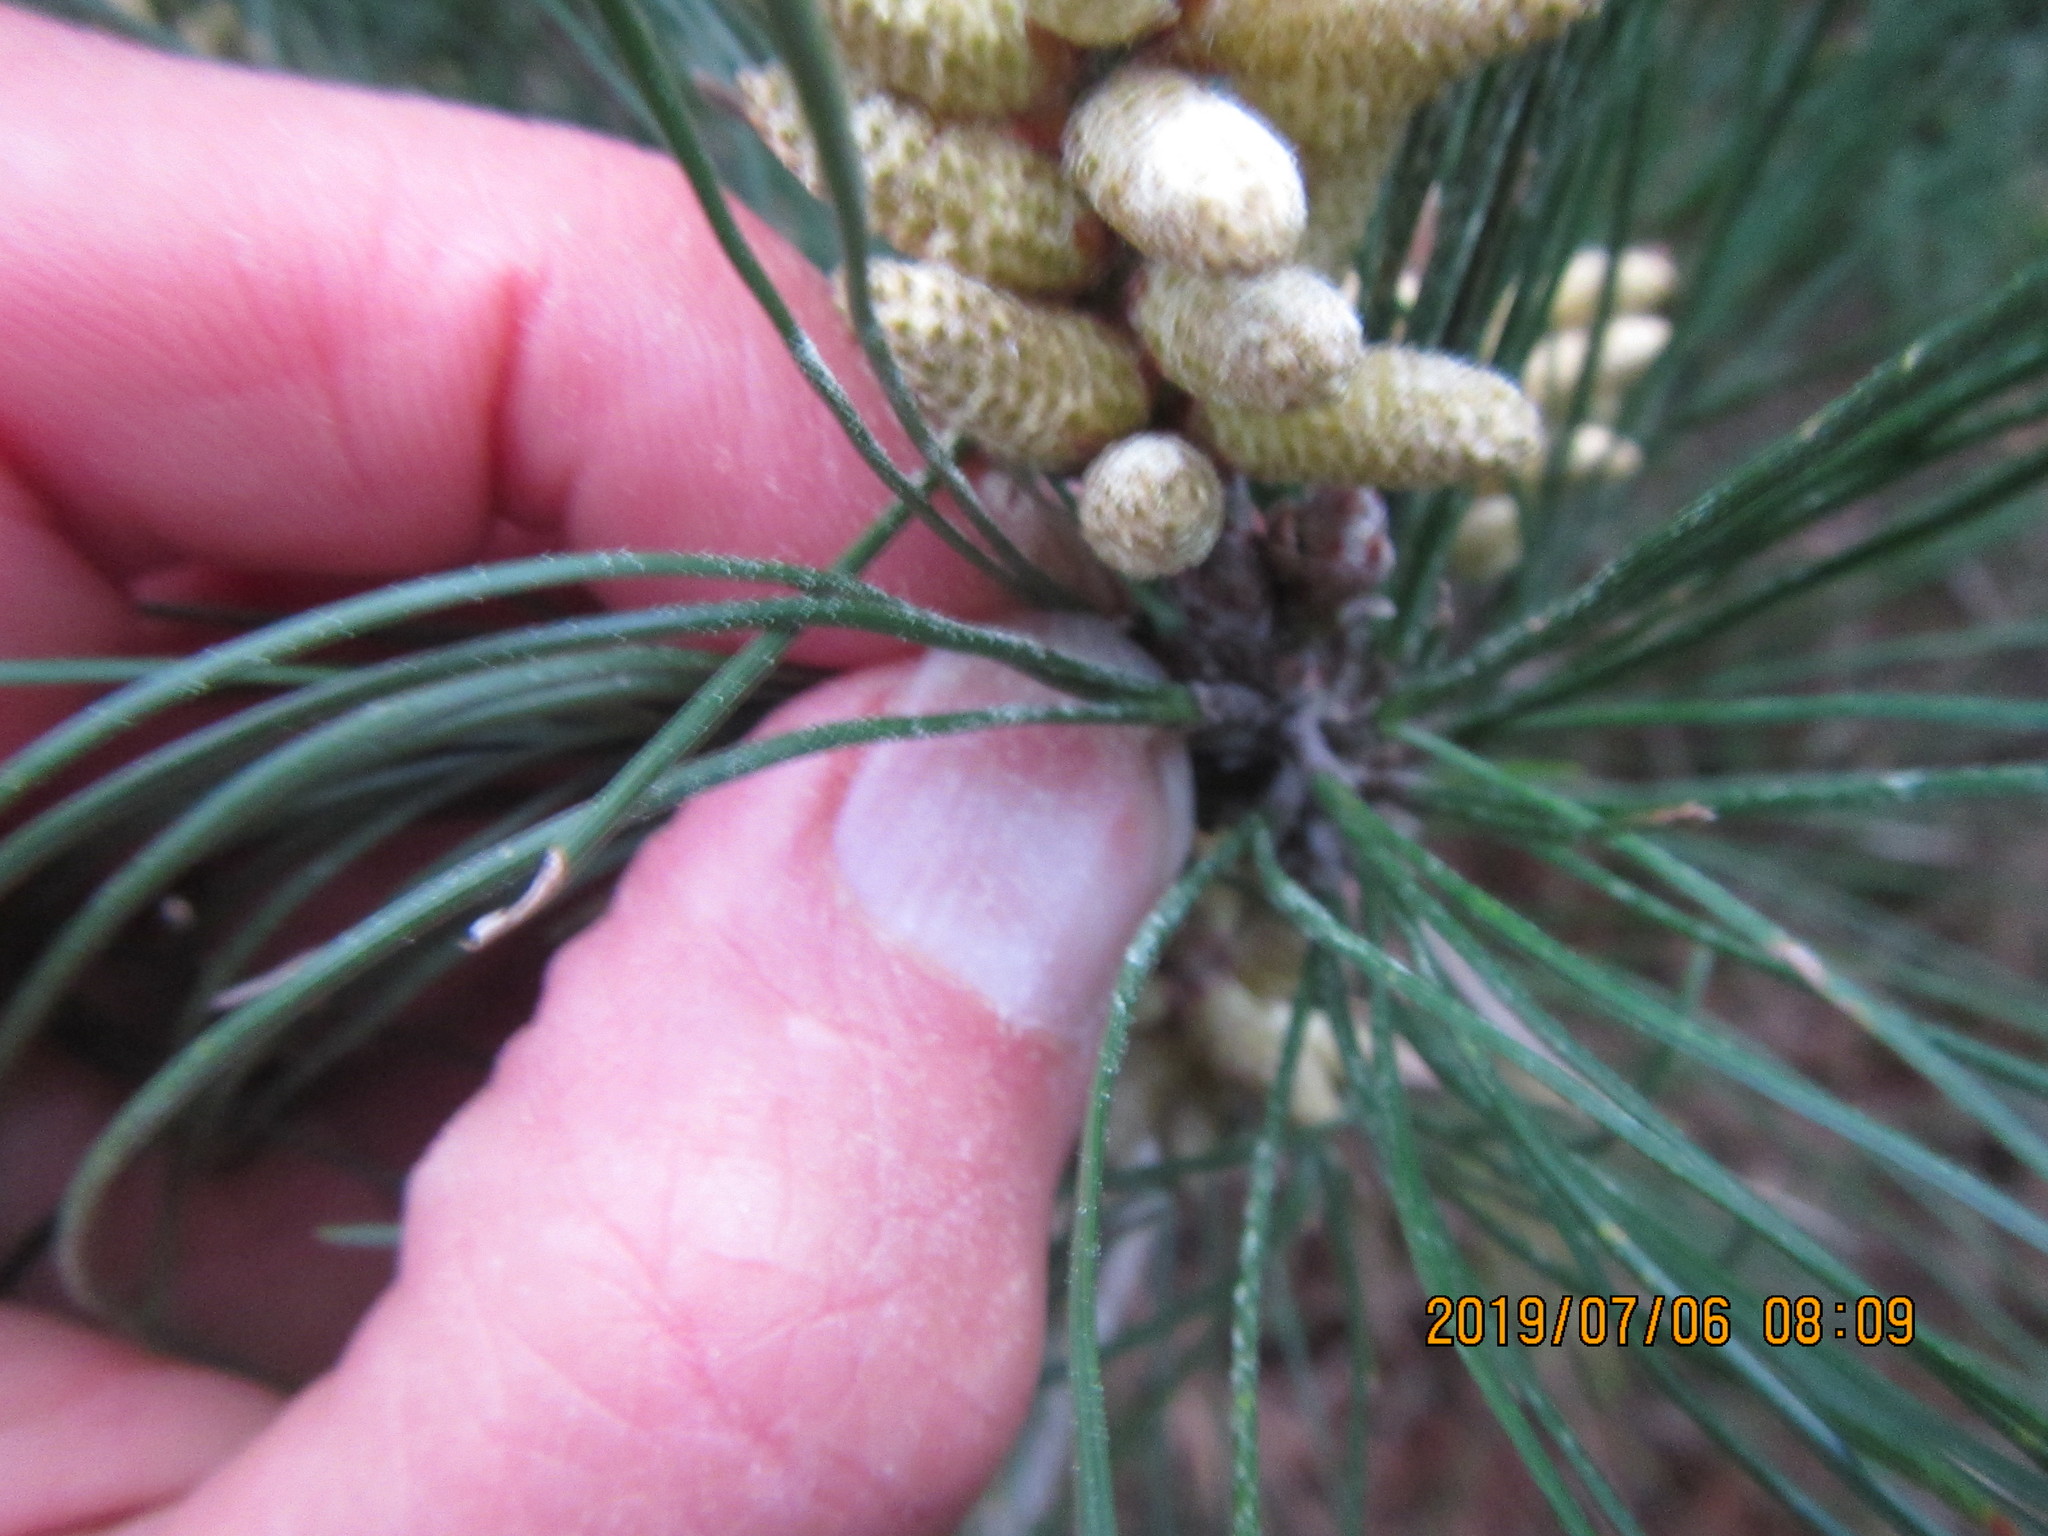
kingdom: Plantae
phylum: Tracheophyta
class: Pinopsida
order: Pinales
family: Pinaceae
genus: Pinus
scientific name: Pinus radiata
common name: Monterey pine
